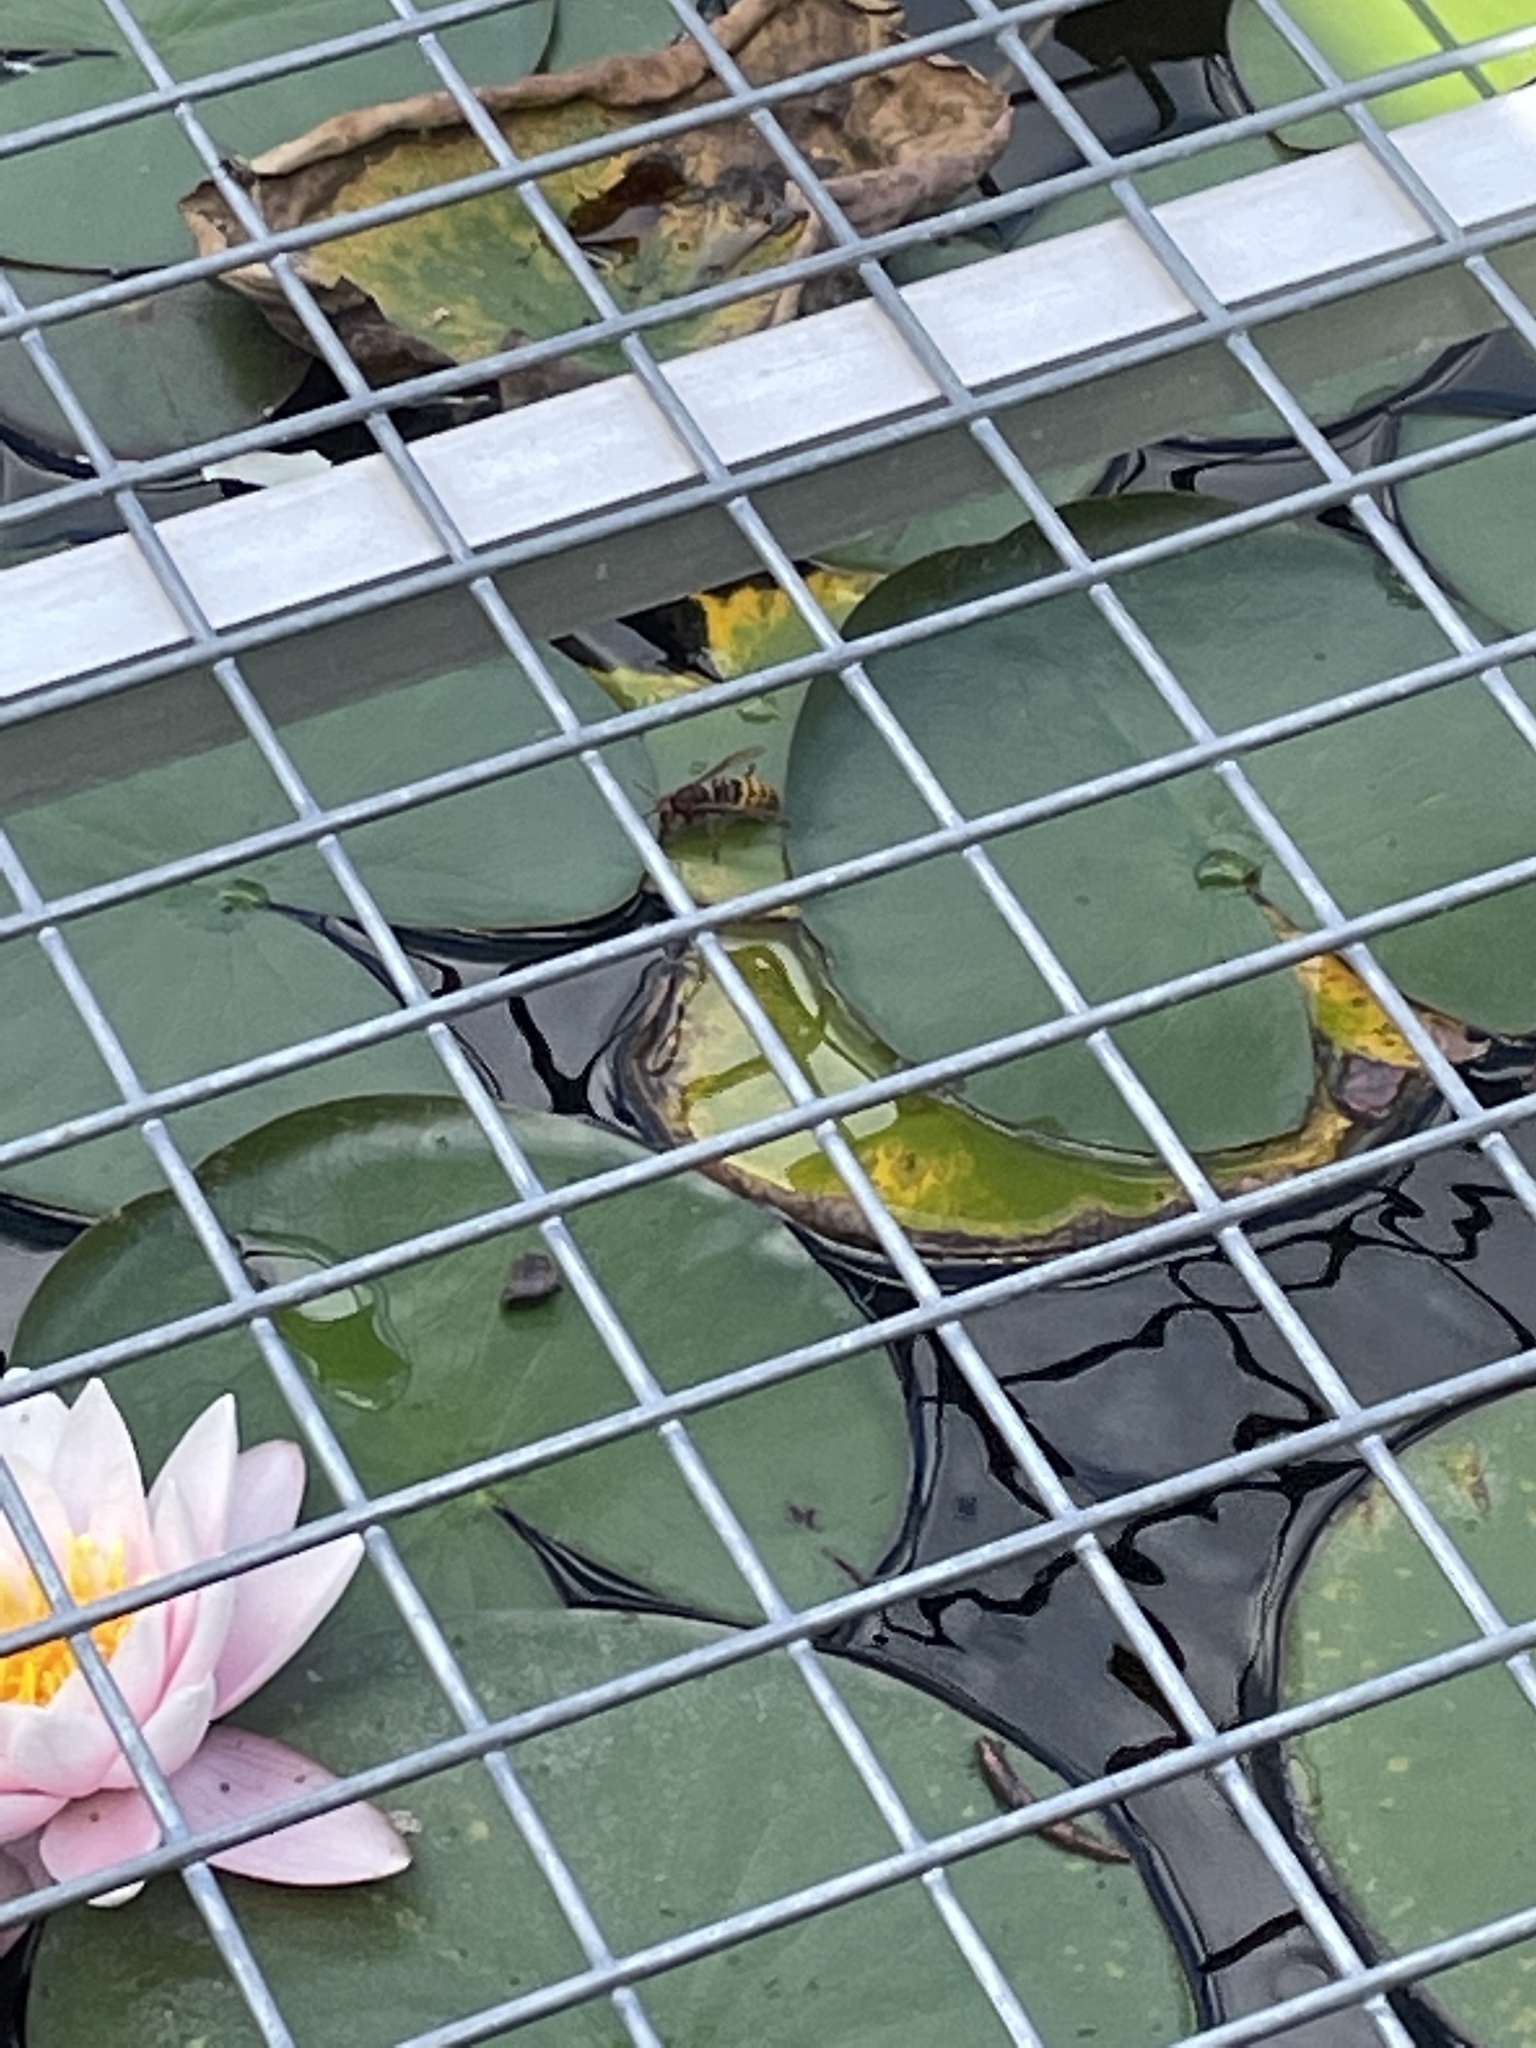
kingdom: Animalia
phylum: Arthropoda
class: Insecta
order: Hymenoptera
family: Vespidae
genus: Vespa
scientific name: Vespa crabro
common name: Hornet
